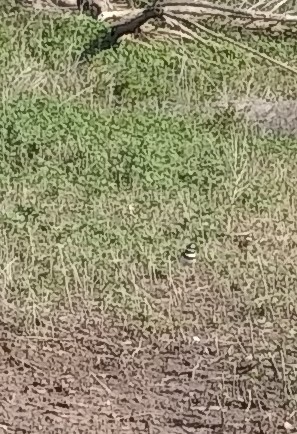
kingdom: Animalia
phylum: Chordata
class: Aves
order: Charadriiformes
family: Charadriidae
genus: Charadrius
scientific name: Charadrius vociferus
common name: Killdeer
